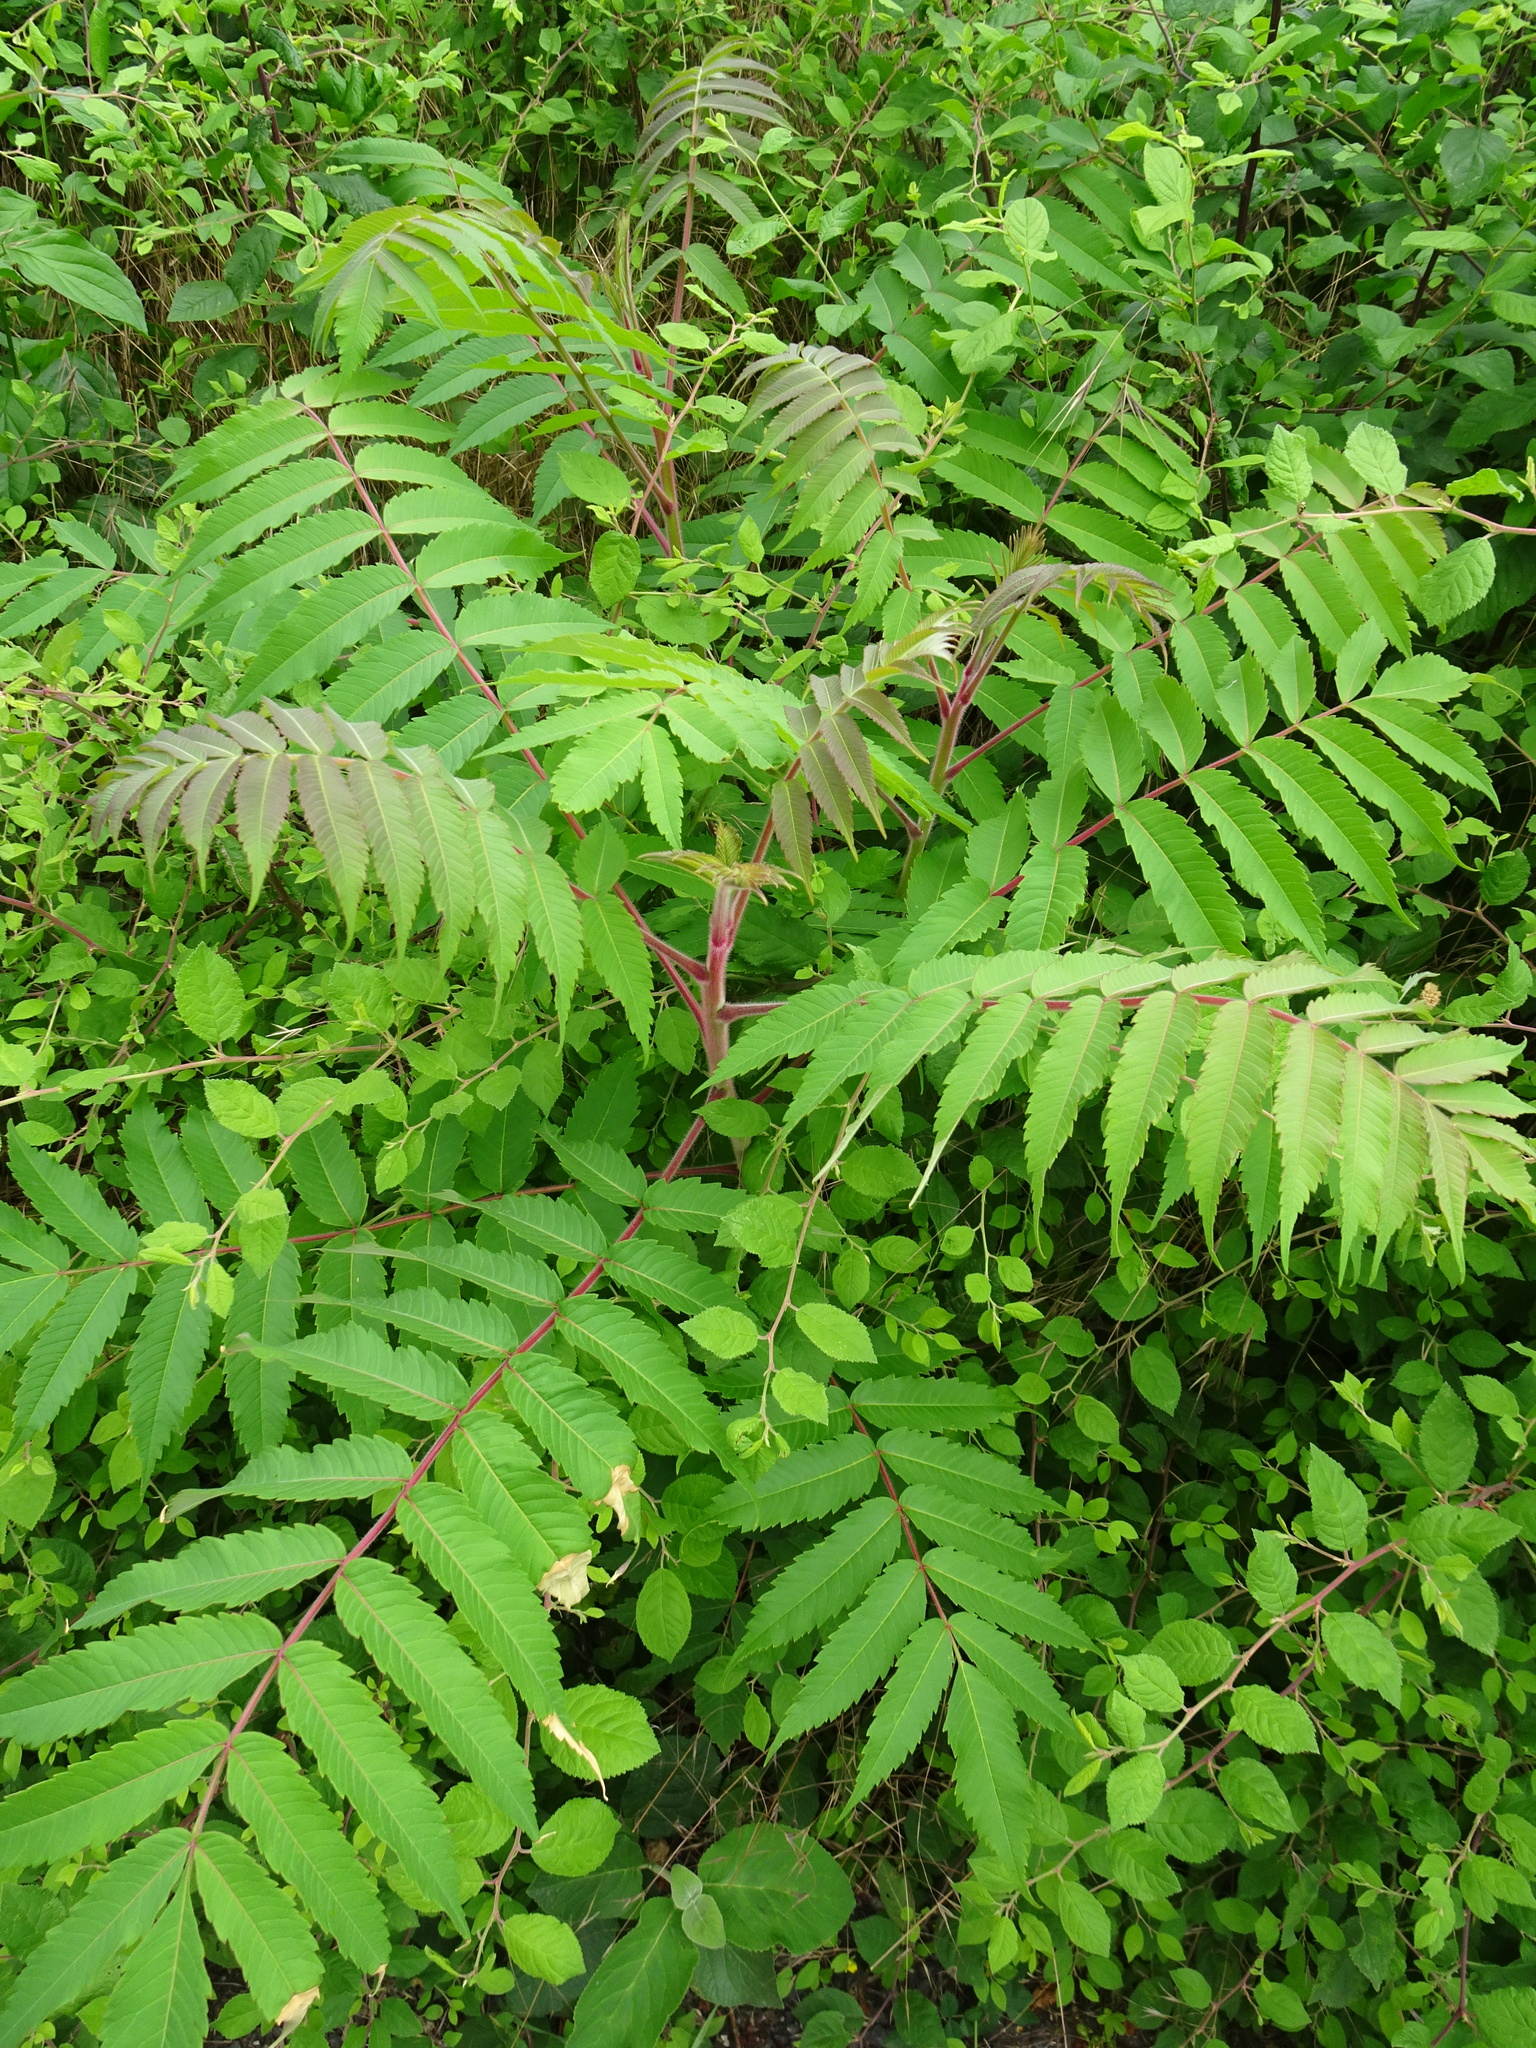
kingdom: Plantae
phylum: Tracheophyta
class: Magnoliopsida
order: Sapindales
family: Anacardiaceae
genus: Rhus
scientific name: Rhus typhina
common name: Staghorn sumac
